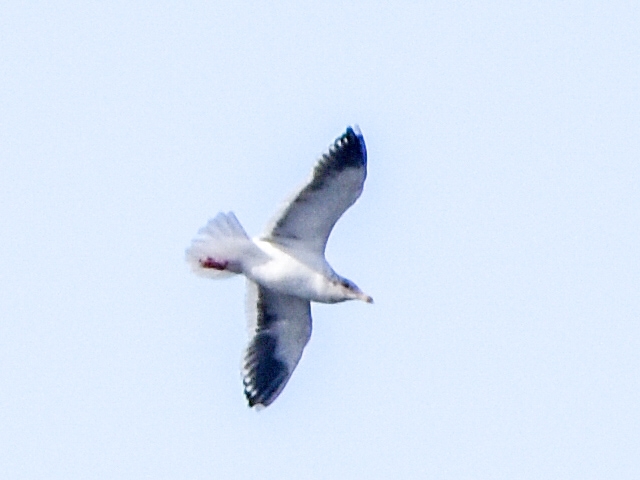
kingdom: Animalia
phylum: Chordata
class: Aves
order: Charadriiformes
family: Laridae
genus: Larus
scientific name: Larus schistisagus
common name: Slaty-backed gull
